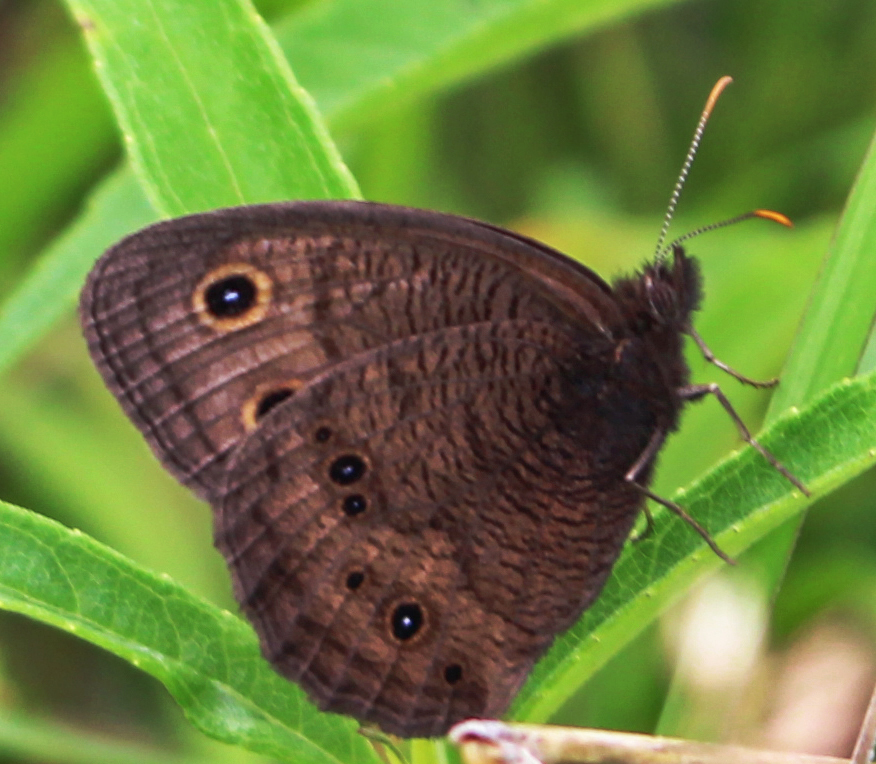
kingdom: Animalia
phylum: Arthropoda
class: Insecta
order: Lepidoptera
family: Nymphalidae
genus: Cercyonis
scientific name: Cercyonis pegala
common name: Common wood-nymph
